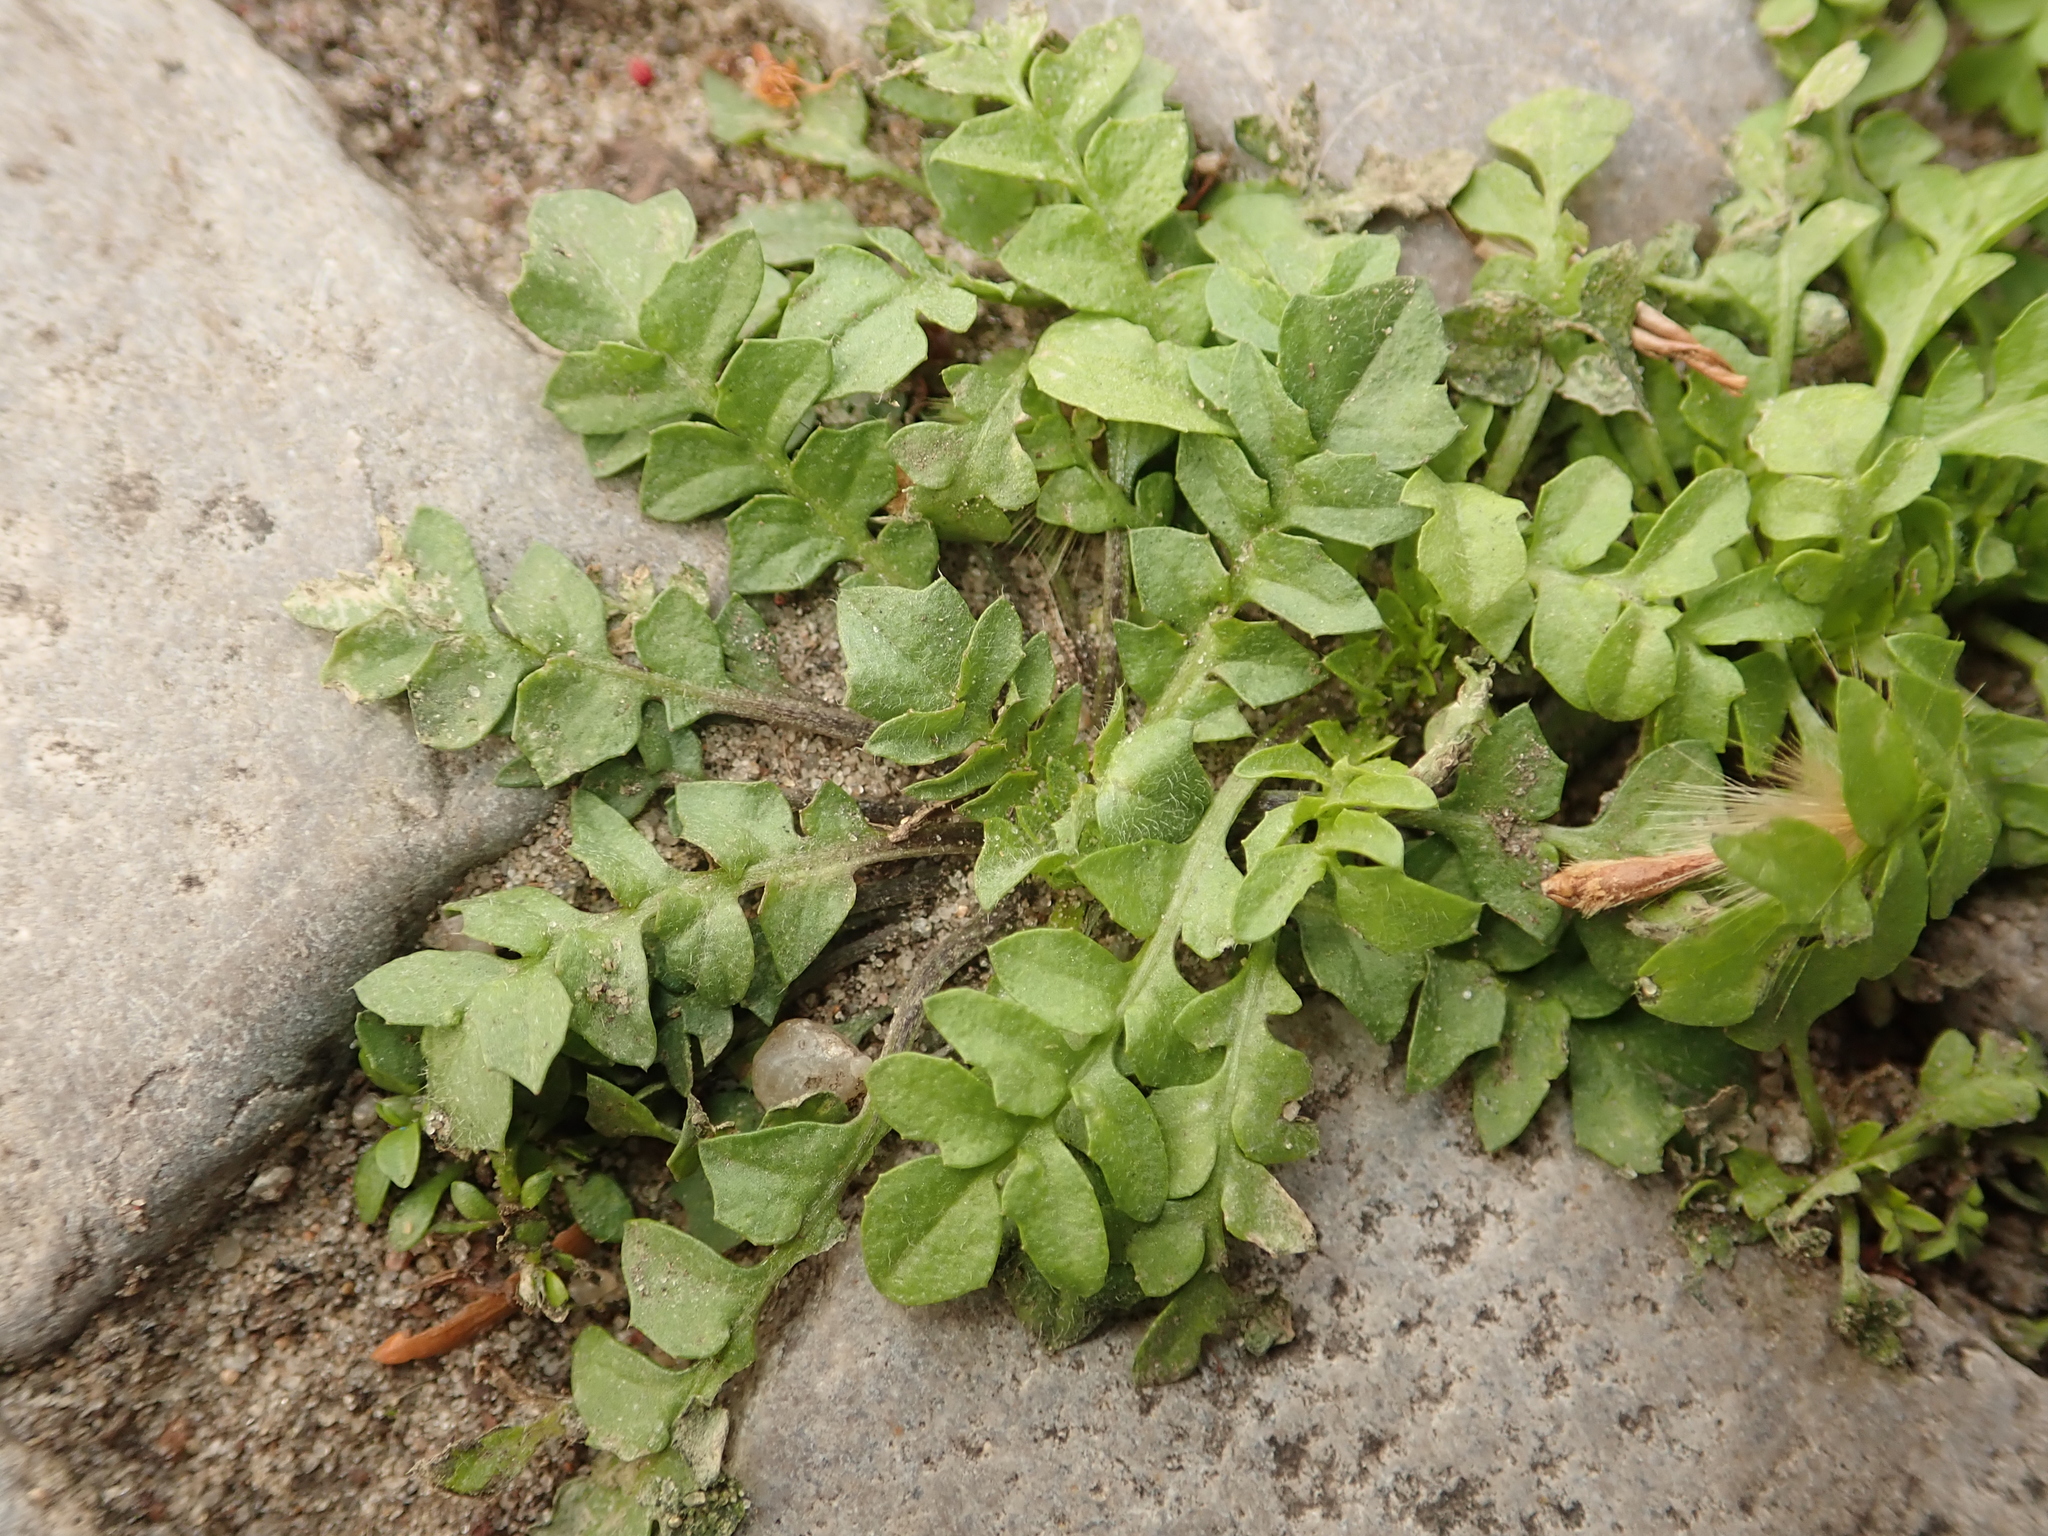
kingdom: Plantae
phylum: Tracheophyta
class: Magnoliopsida
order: Brassicales
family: Brassicaceae
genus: Capsella
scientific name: Capsella bursa-pastoris
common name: Shepherd's purse
